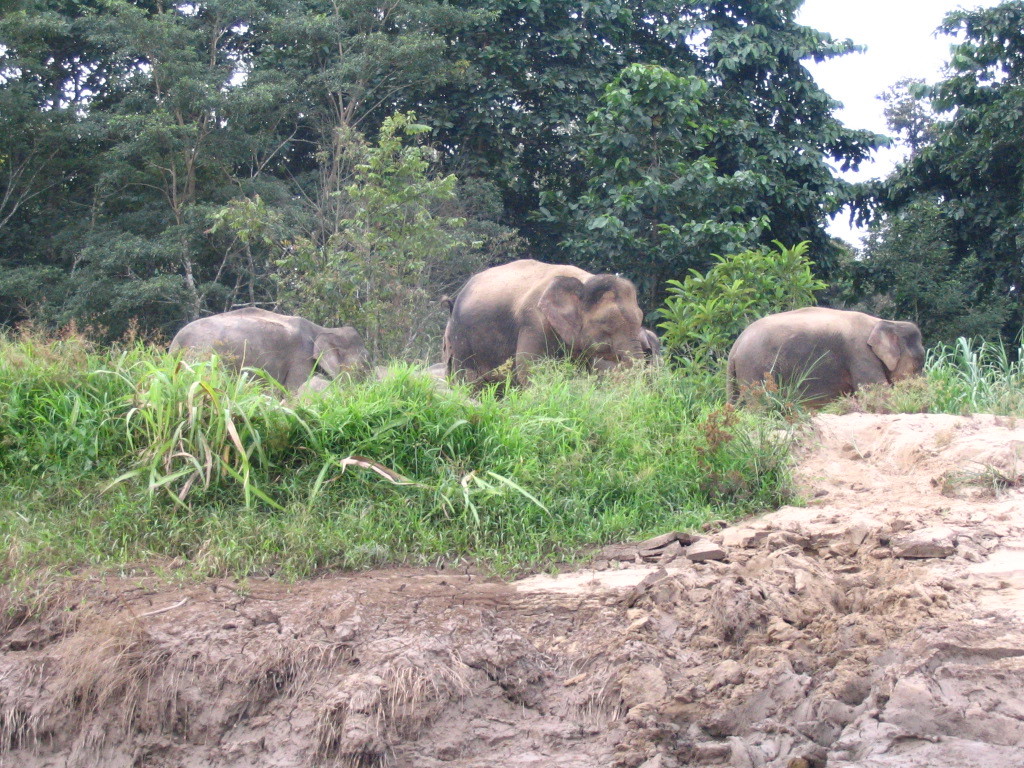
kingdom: Animalia
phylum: Chordata
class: Mammalia
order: Proboscidea
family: Elephantidae
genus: Elephas
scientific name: Elephas maximus
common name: Asian elephant
